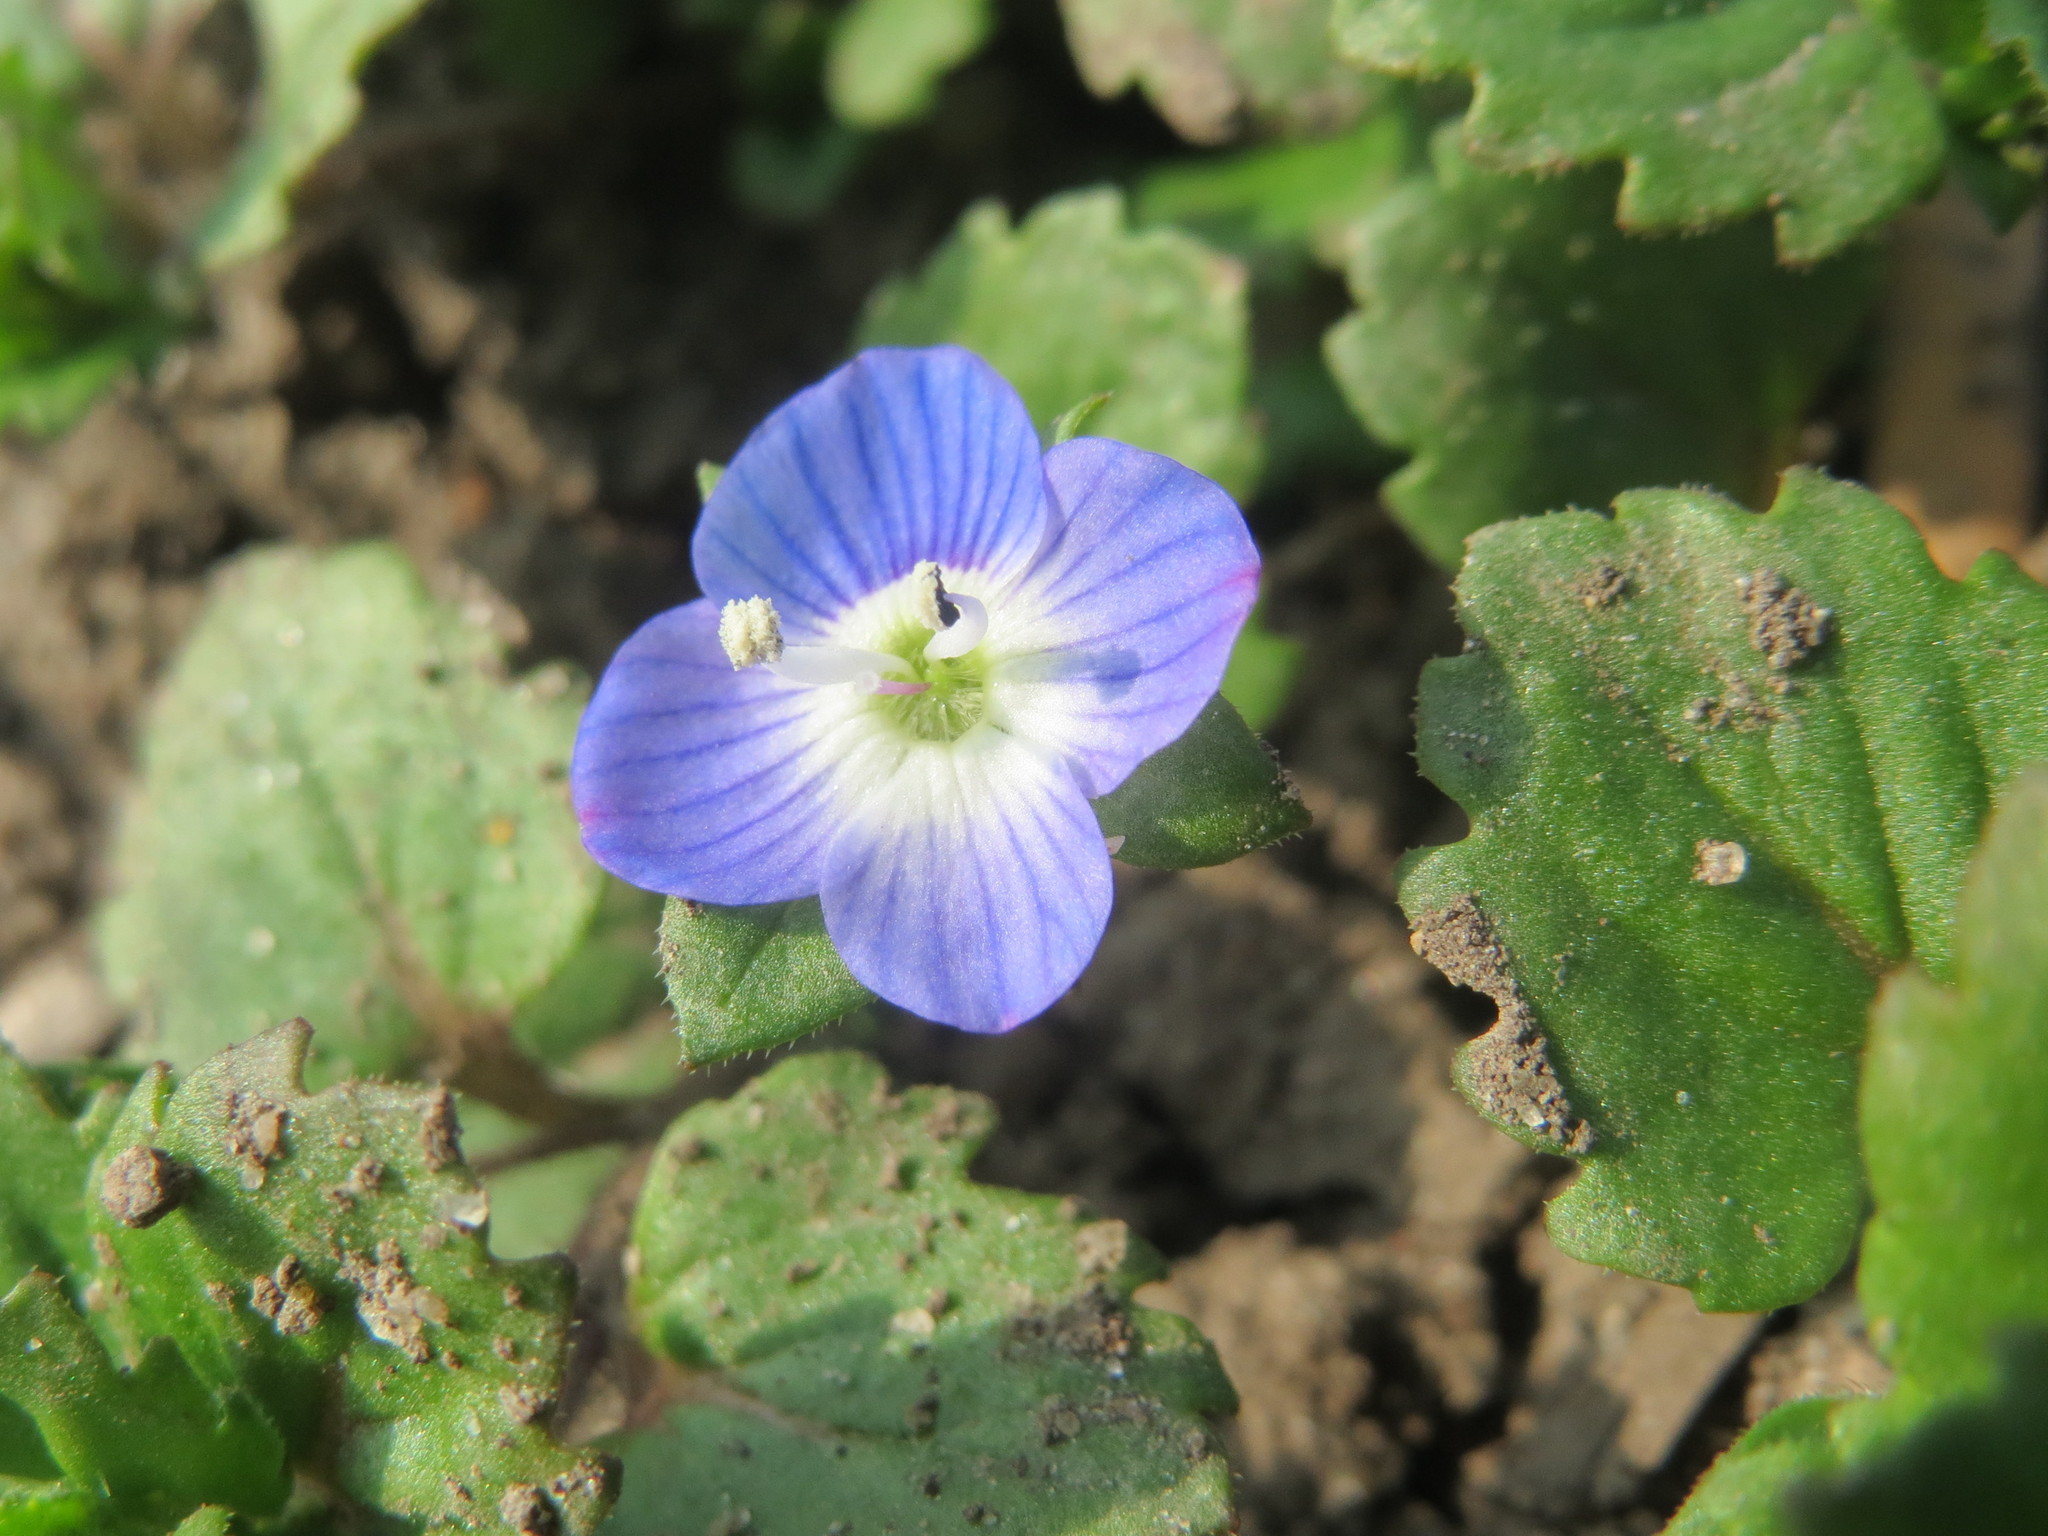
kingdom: Plantae
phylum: Tracheophyta
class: Magnoliopsida
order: Lamiales
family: Plantaginaceae
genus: Veronica
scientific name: Veronica persica
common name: Common field-speedwell
